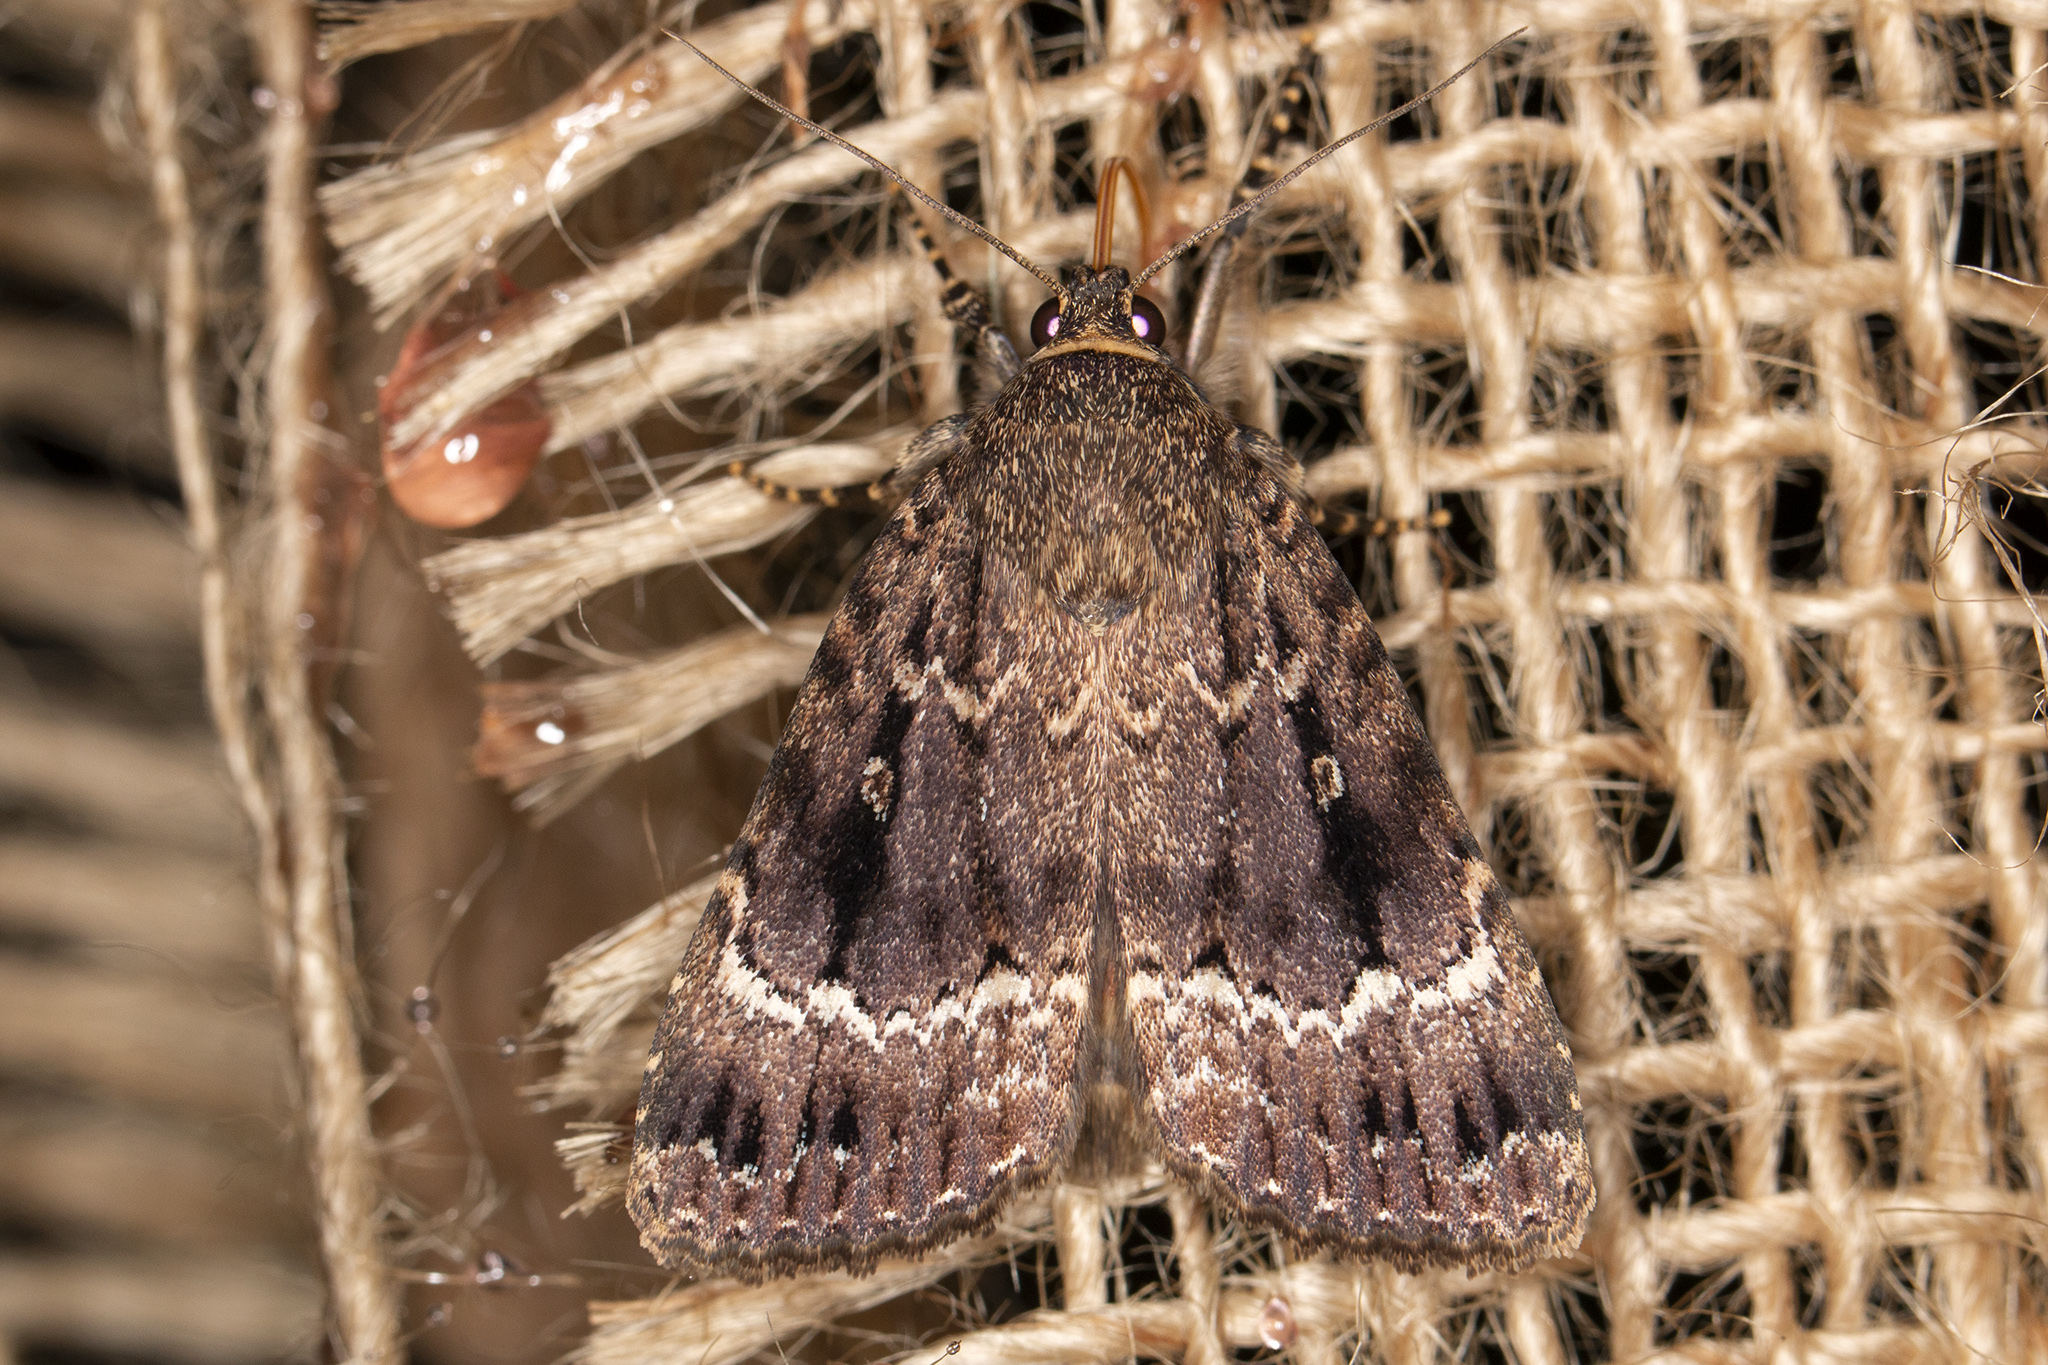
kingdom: Animalia
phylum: Arthropoda
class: Insecta
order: Lepidoptera
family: Noctuidae
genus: Amphipyra
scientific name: Amphipyra pyramidea
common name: Copper underwing
